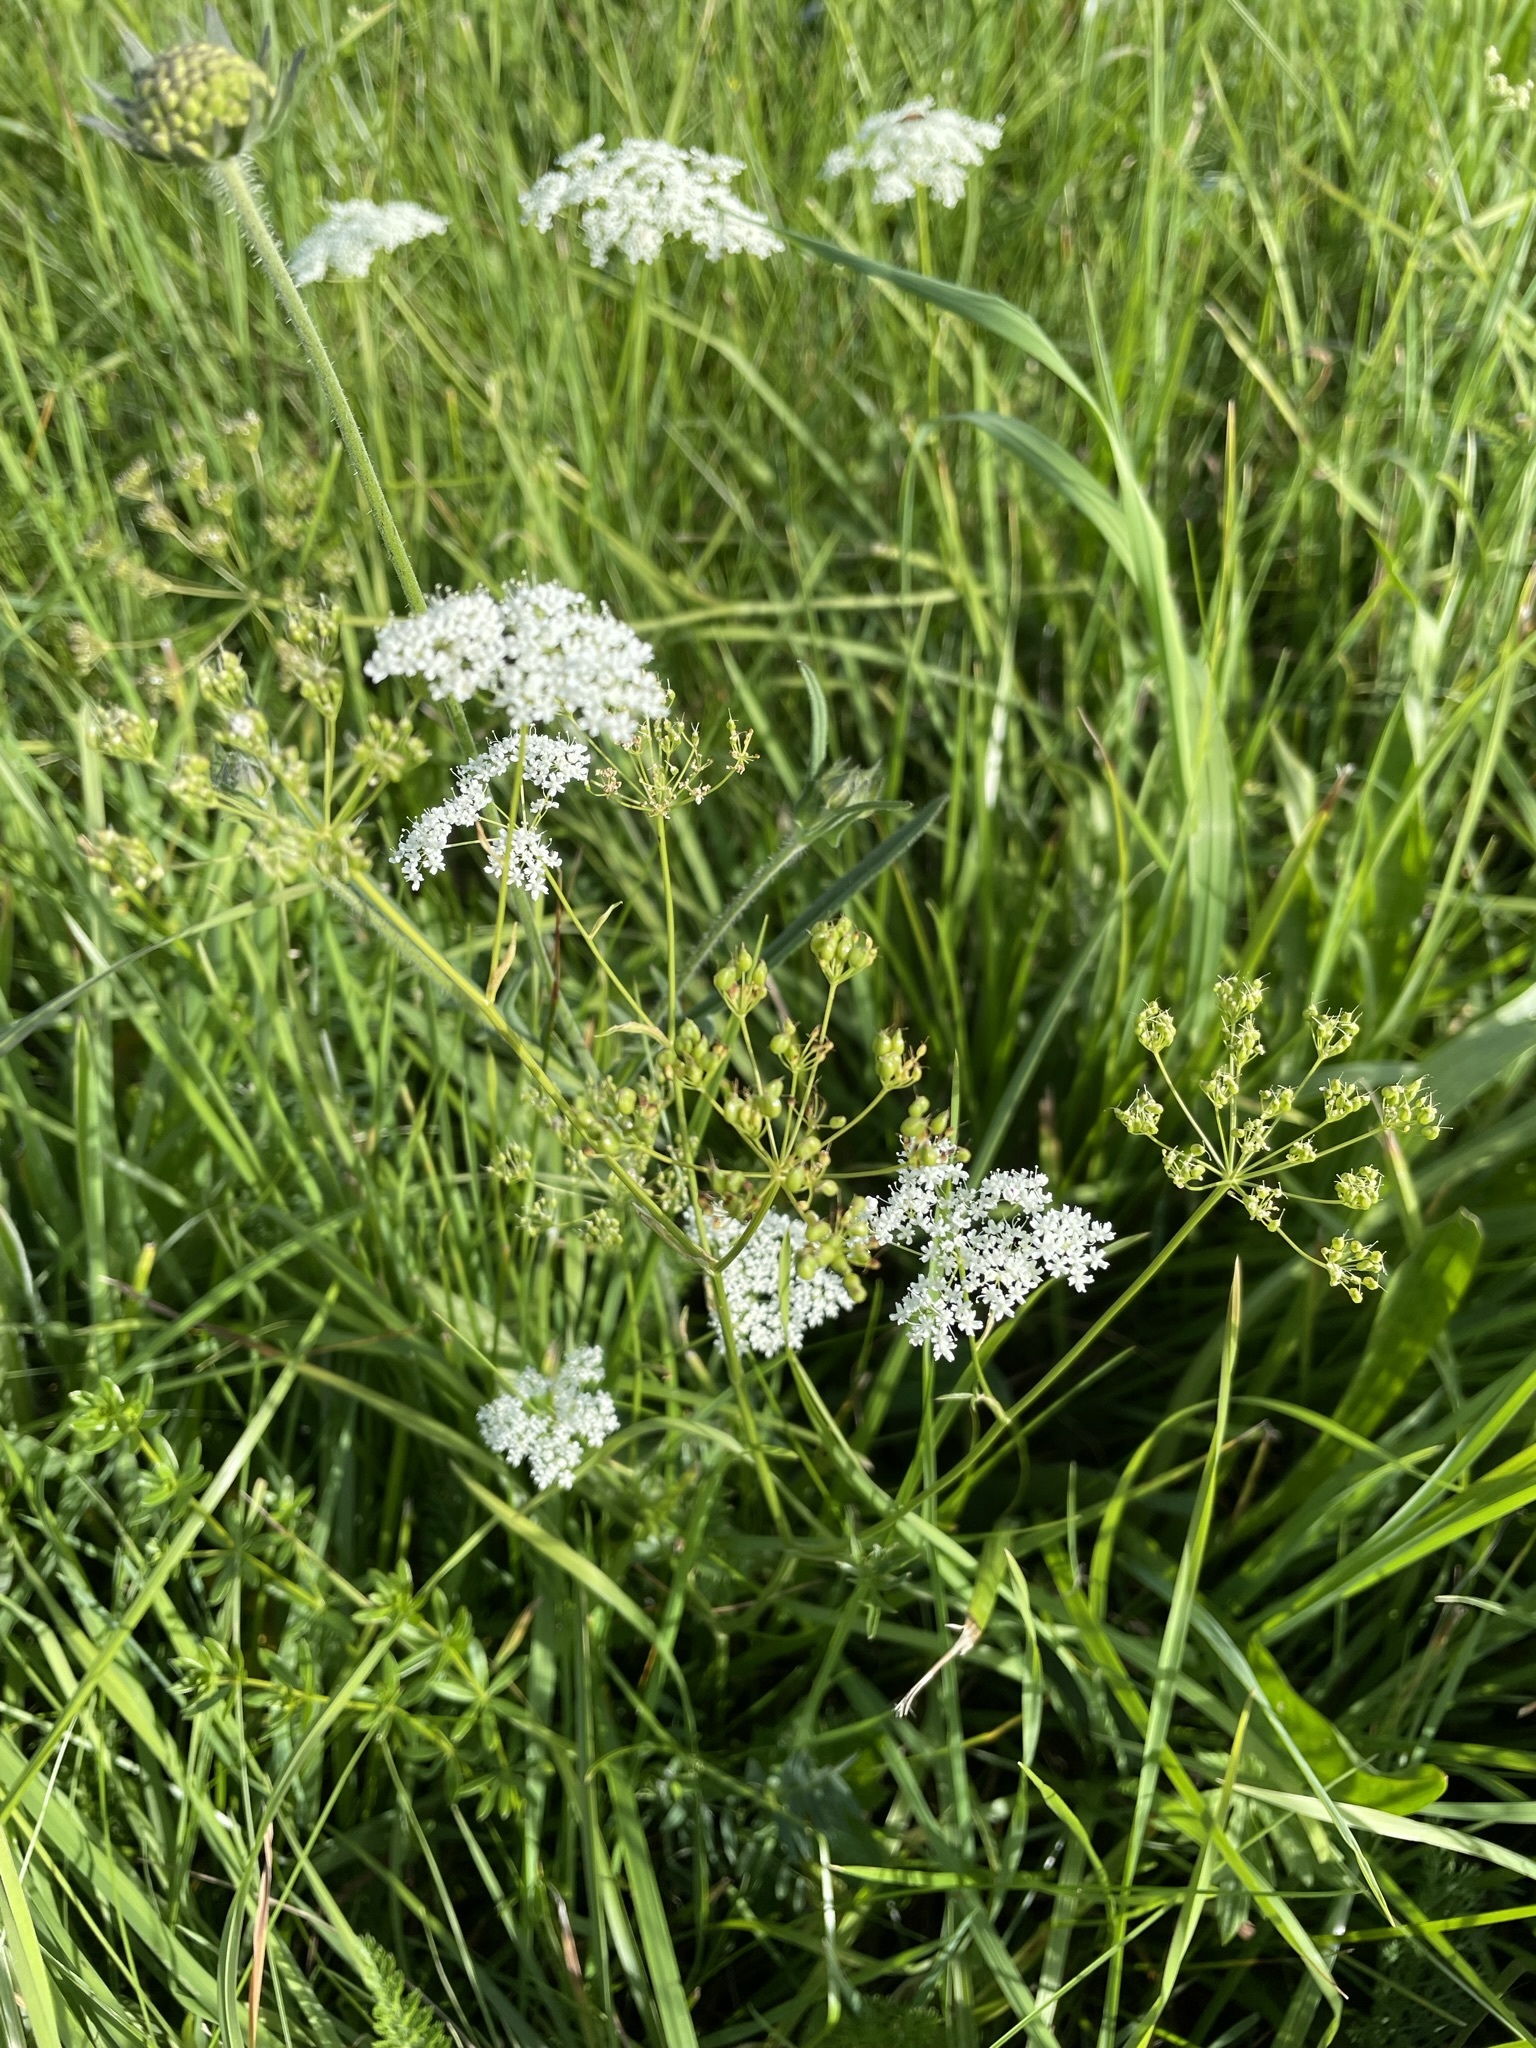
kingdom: Plantae
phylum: Tracheophyta
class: Magnoliopsida
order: Apiales
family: Apiaceae
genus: Pimpinella
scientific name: Pimpinella major
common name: Greater burnet-saxifrage
